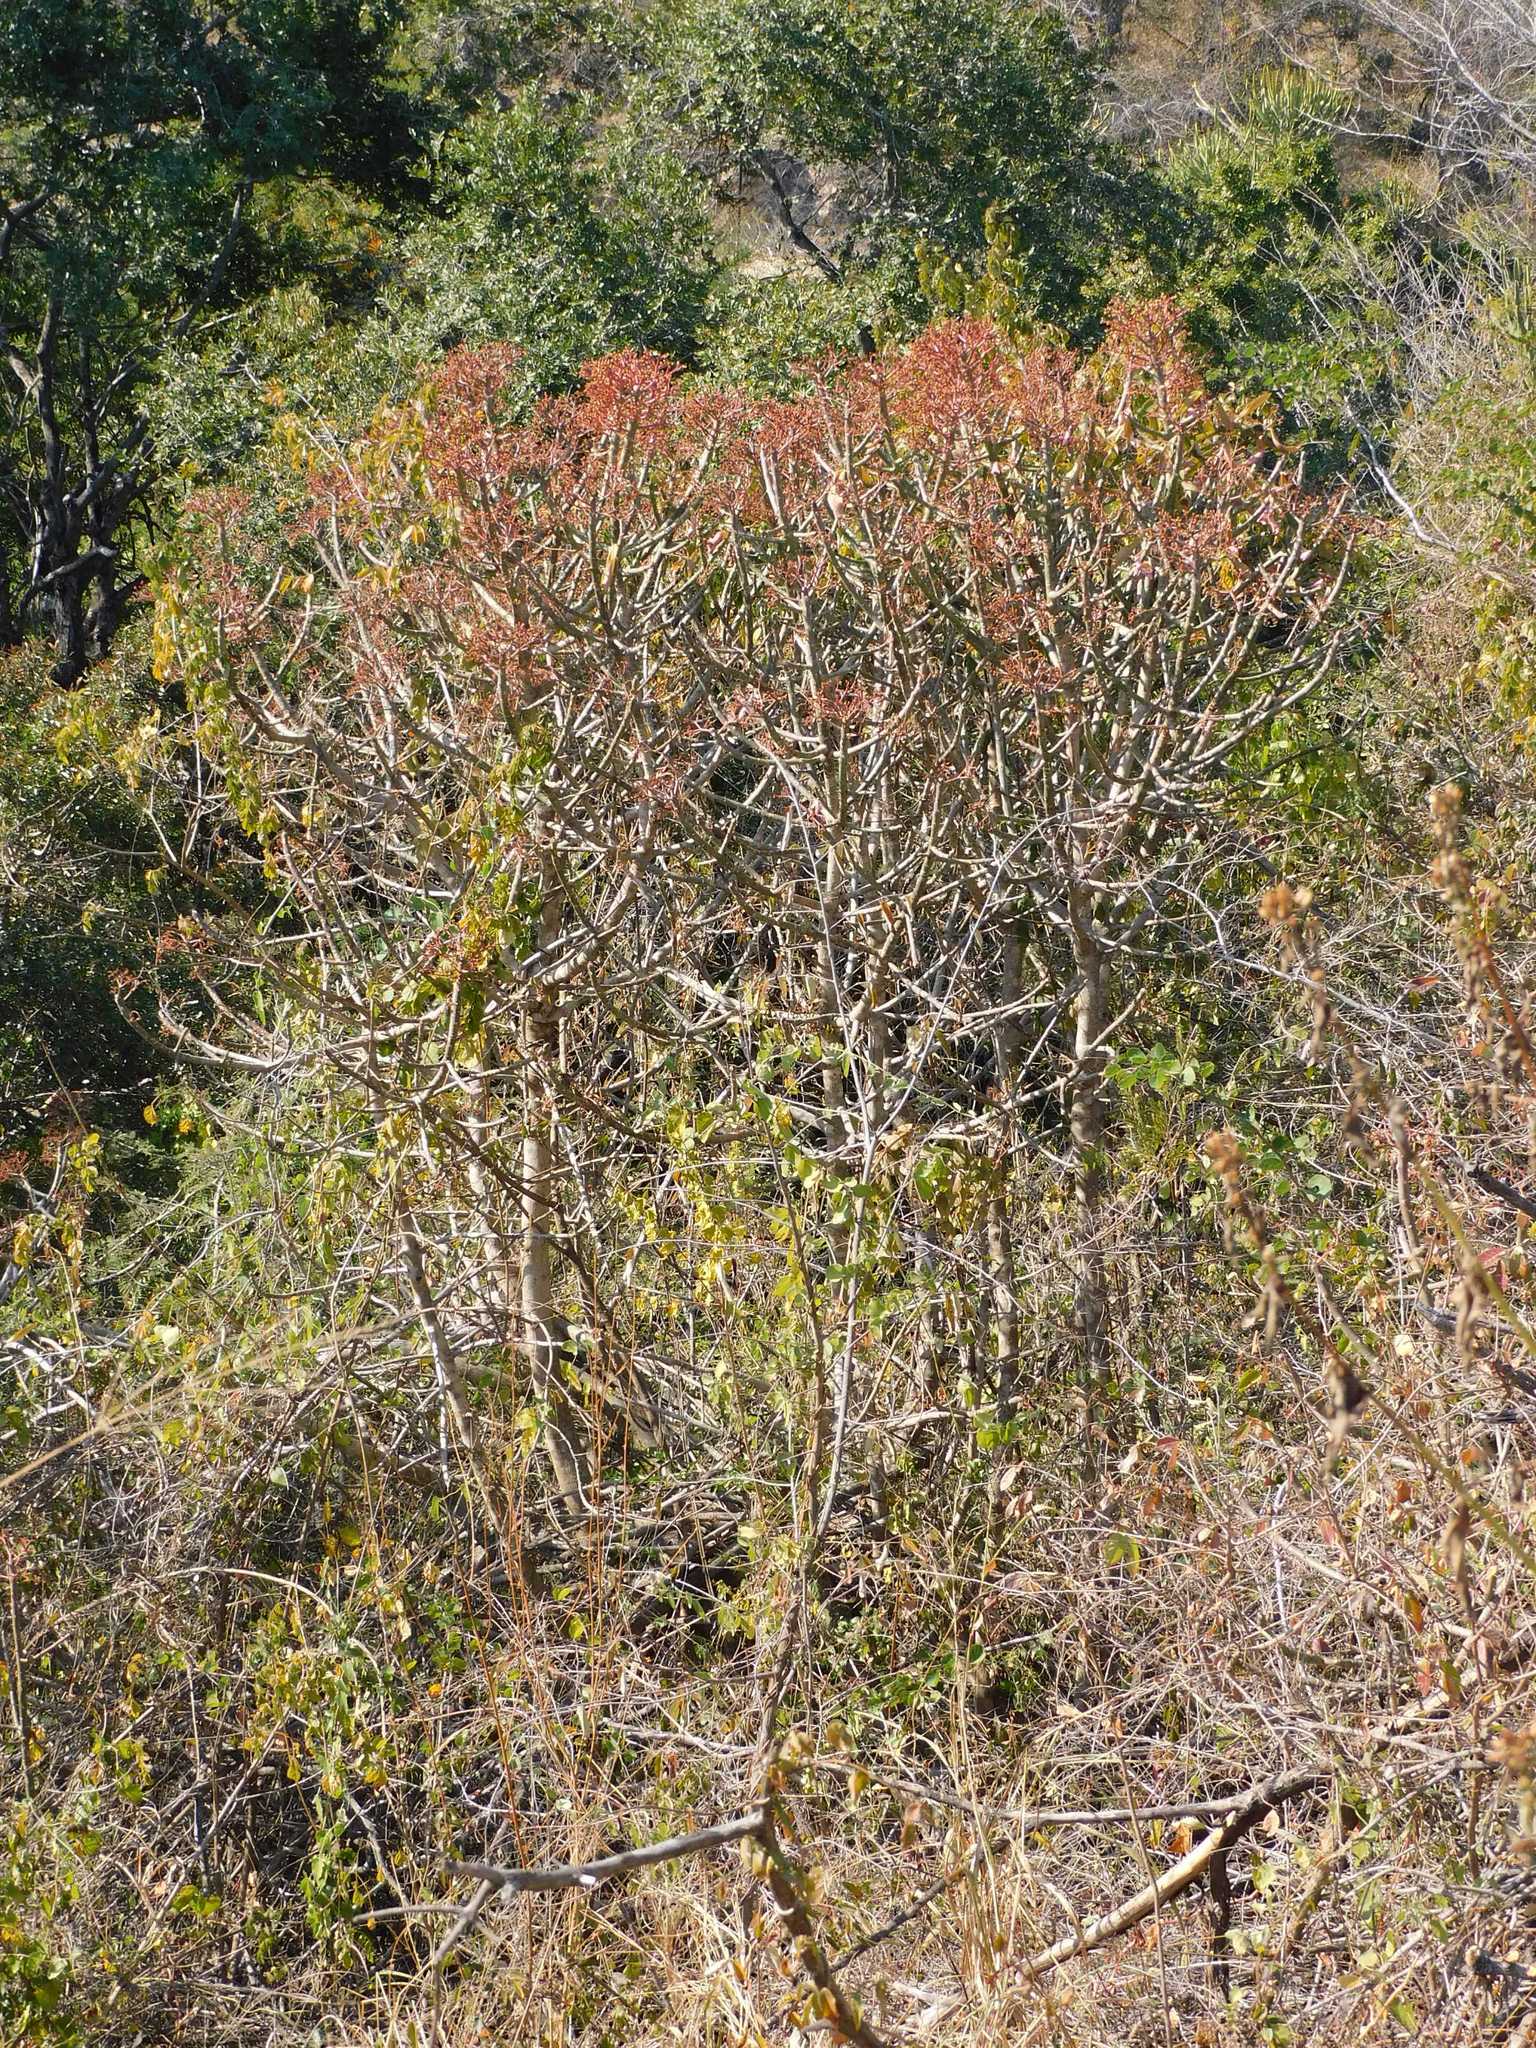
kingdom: Plantae
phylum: Tracheophyta
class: Magnoliopsida
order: Malpighiales
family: Euphorbiaceae
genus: Euphorbia
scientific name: Euphorbia cupularis
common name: Crying tree
